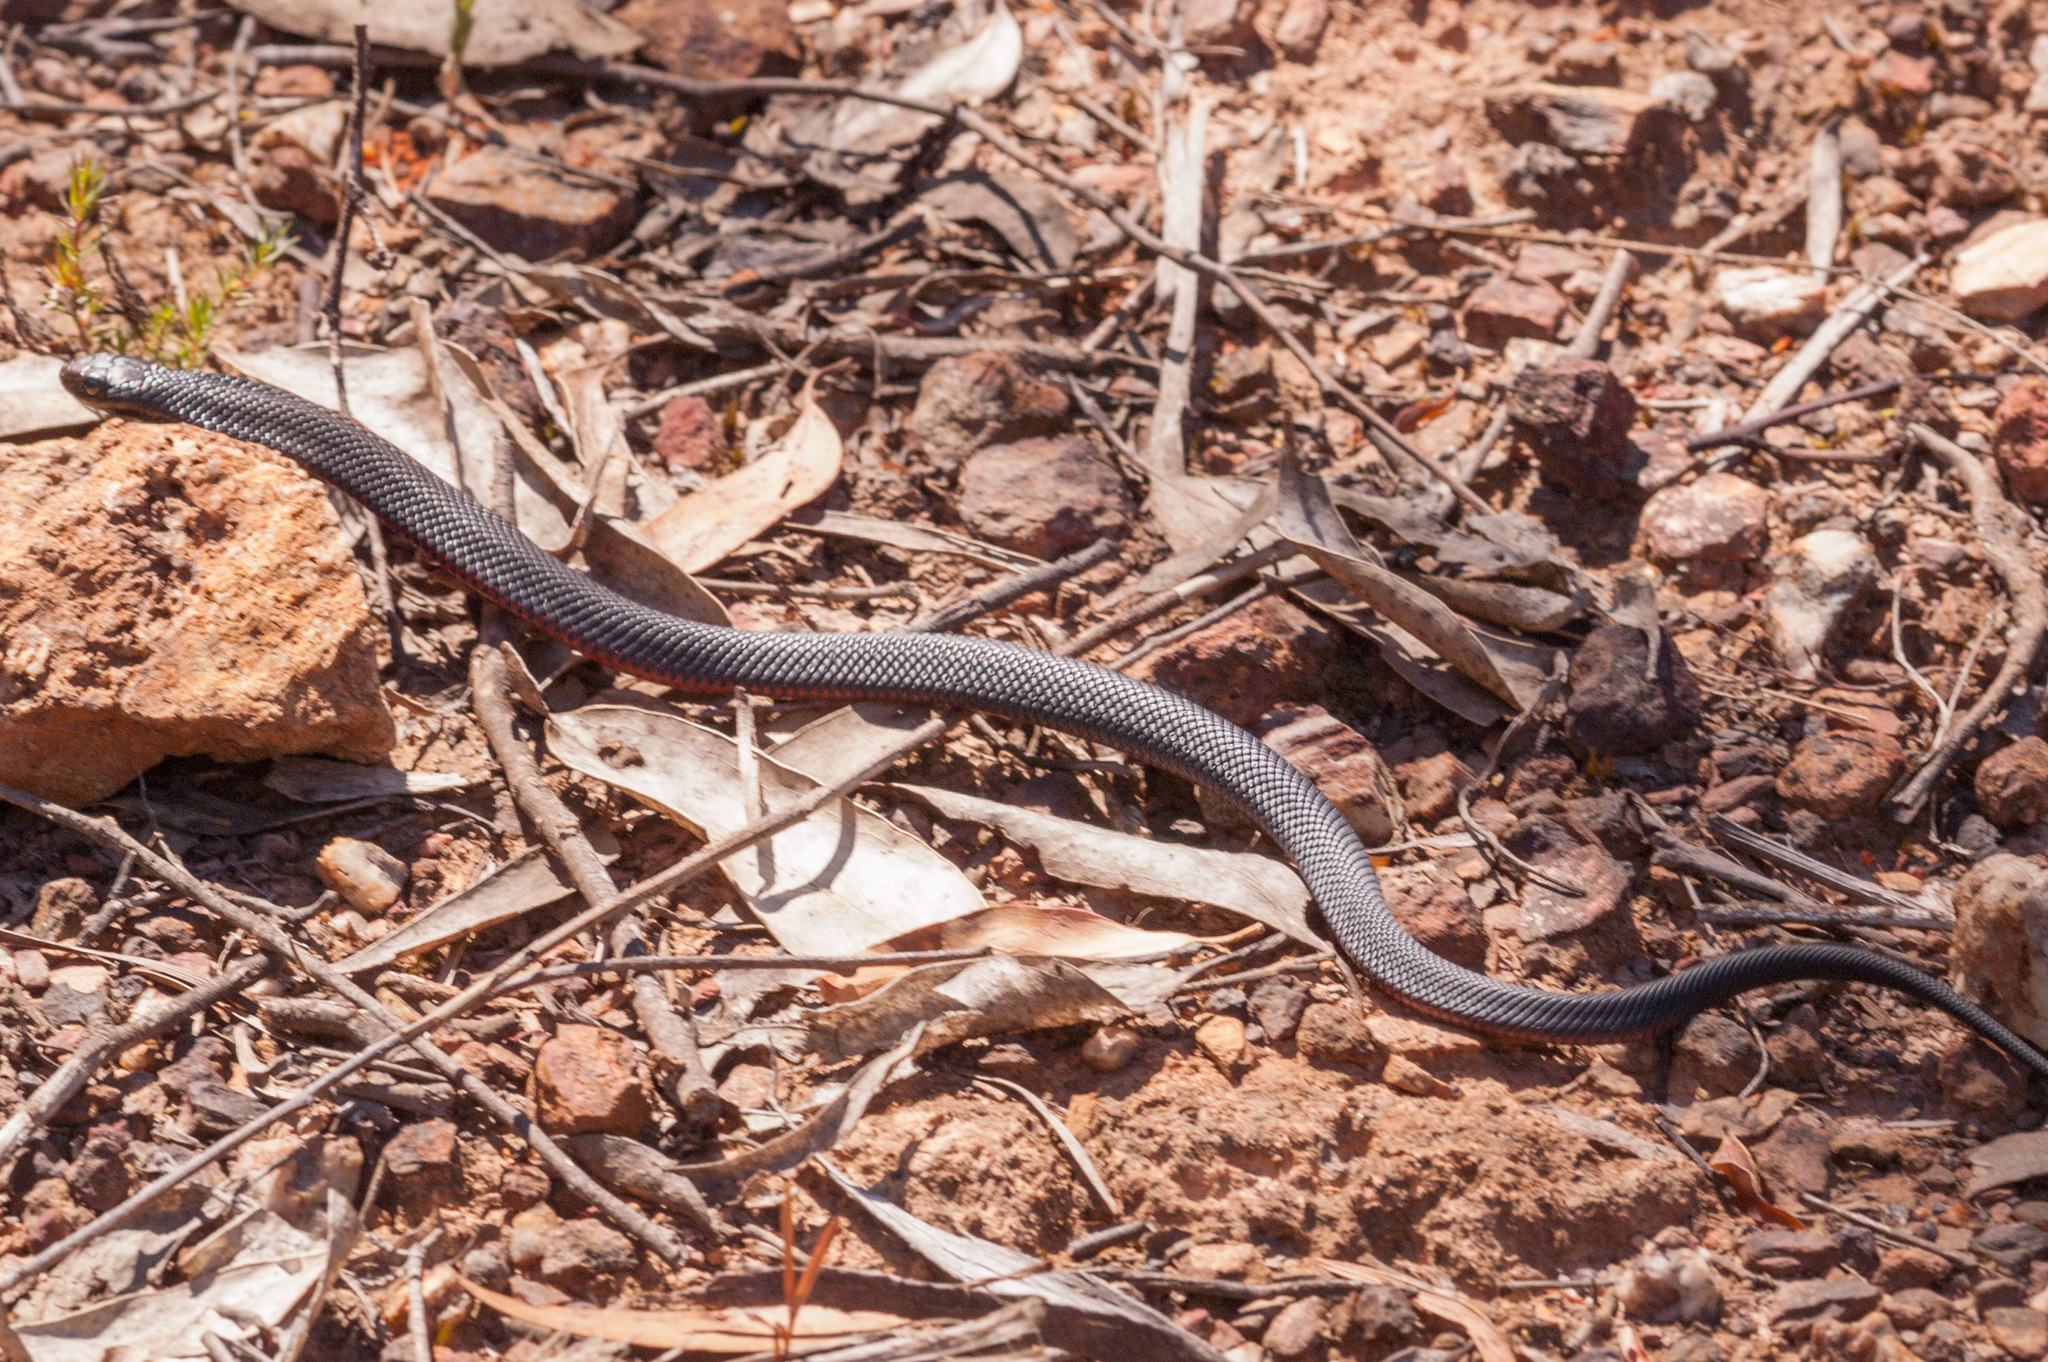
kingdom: Animalia
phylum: Chordata
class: Squamata
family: Elapidae
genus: Pseudechis
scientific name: Pseudechis porphyriacus
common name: Australian black snake
